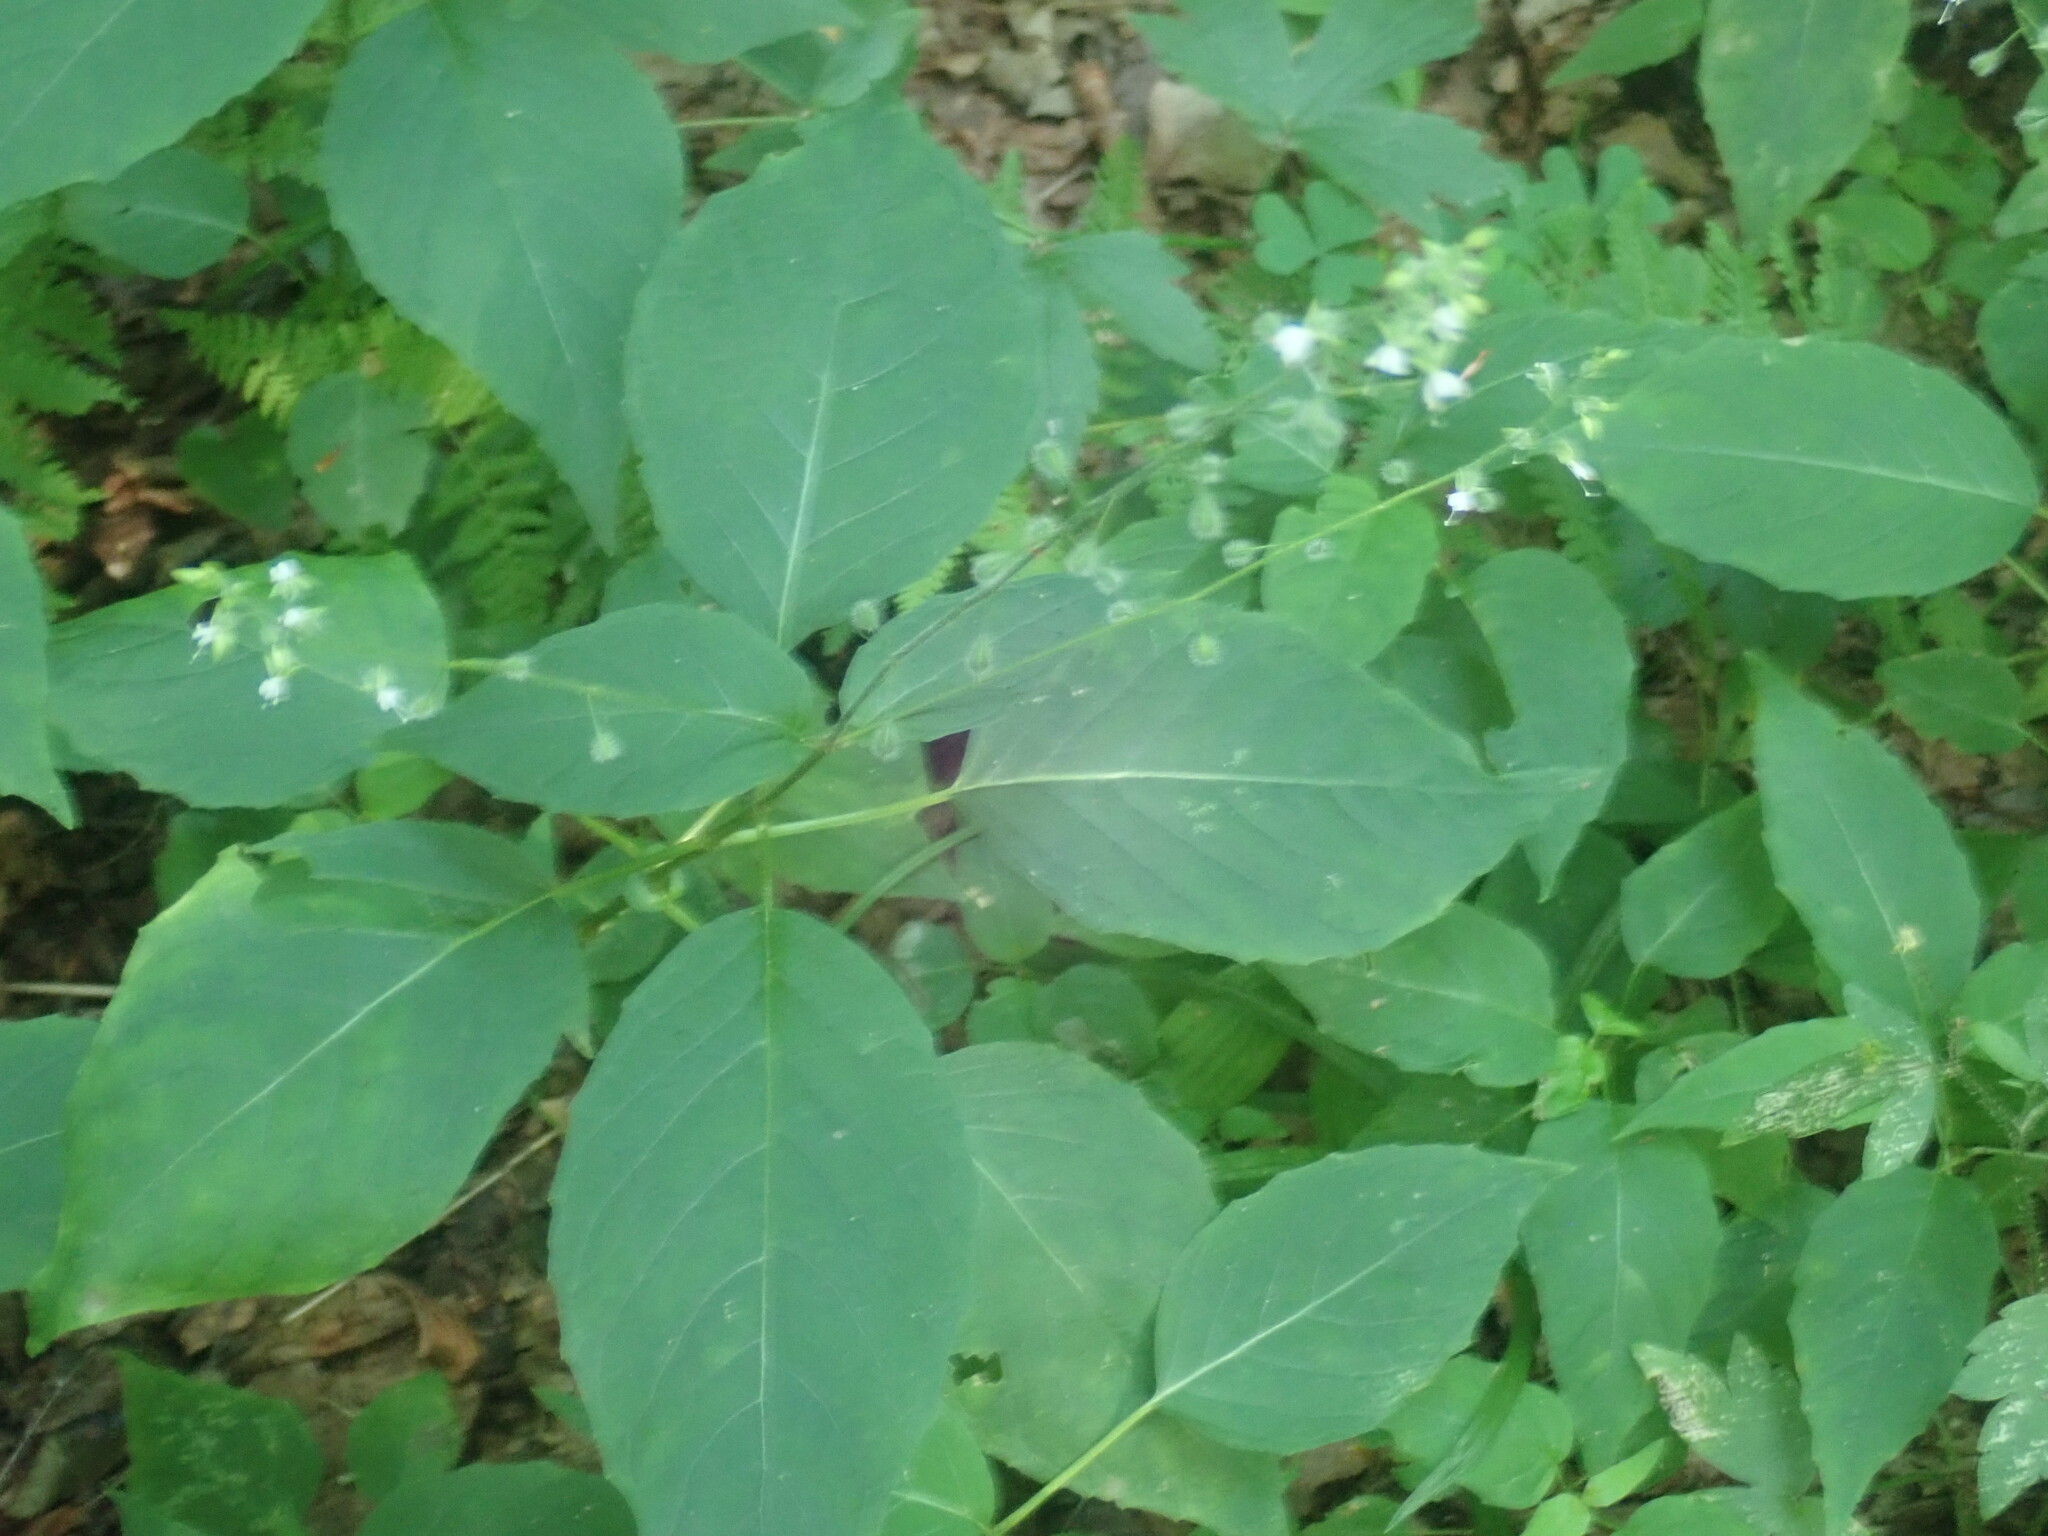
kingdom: Plantae
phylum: Tracheophyta
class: Magnoliopsida
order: Myrtales
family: Onagraceae
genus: Circaea
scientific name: Circaea canadensis
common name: Broad-leaved enchanter's nightshade
